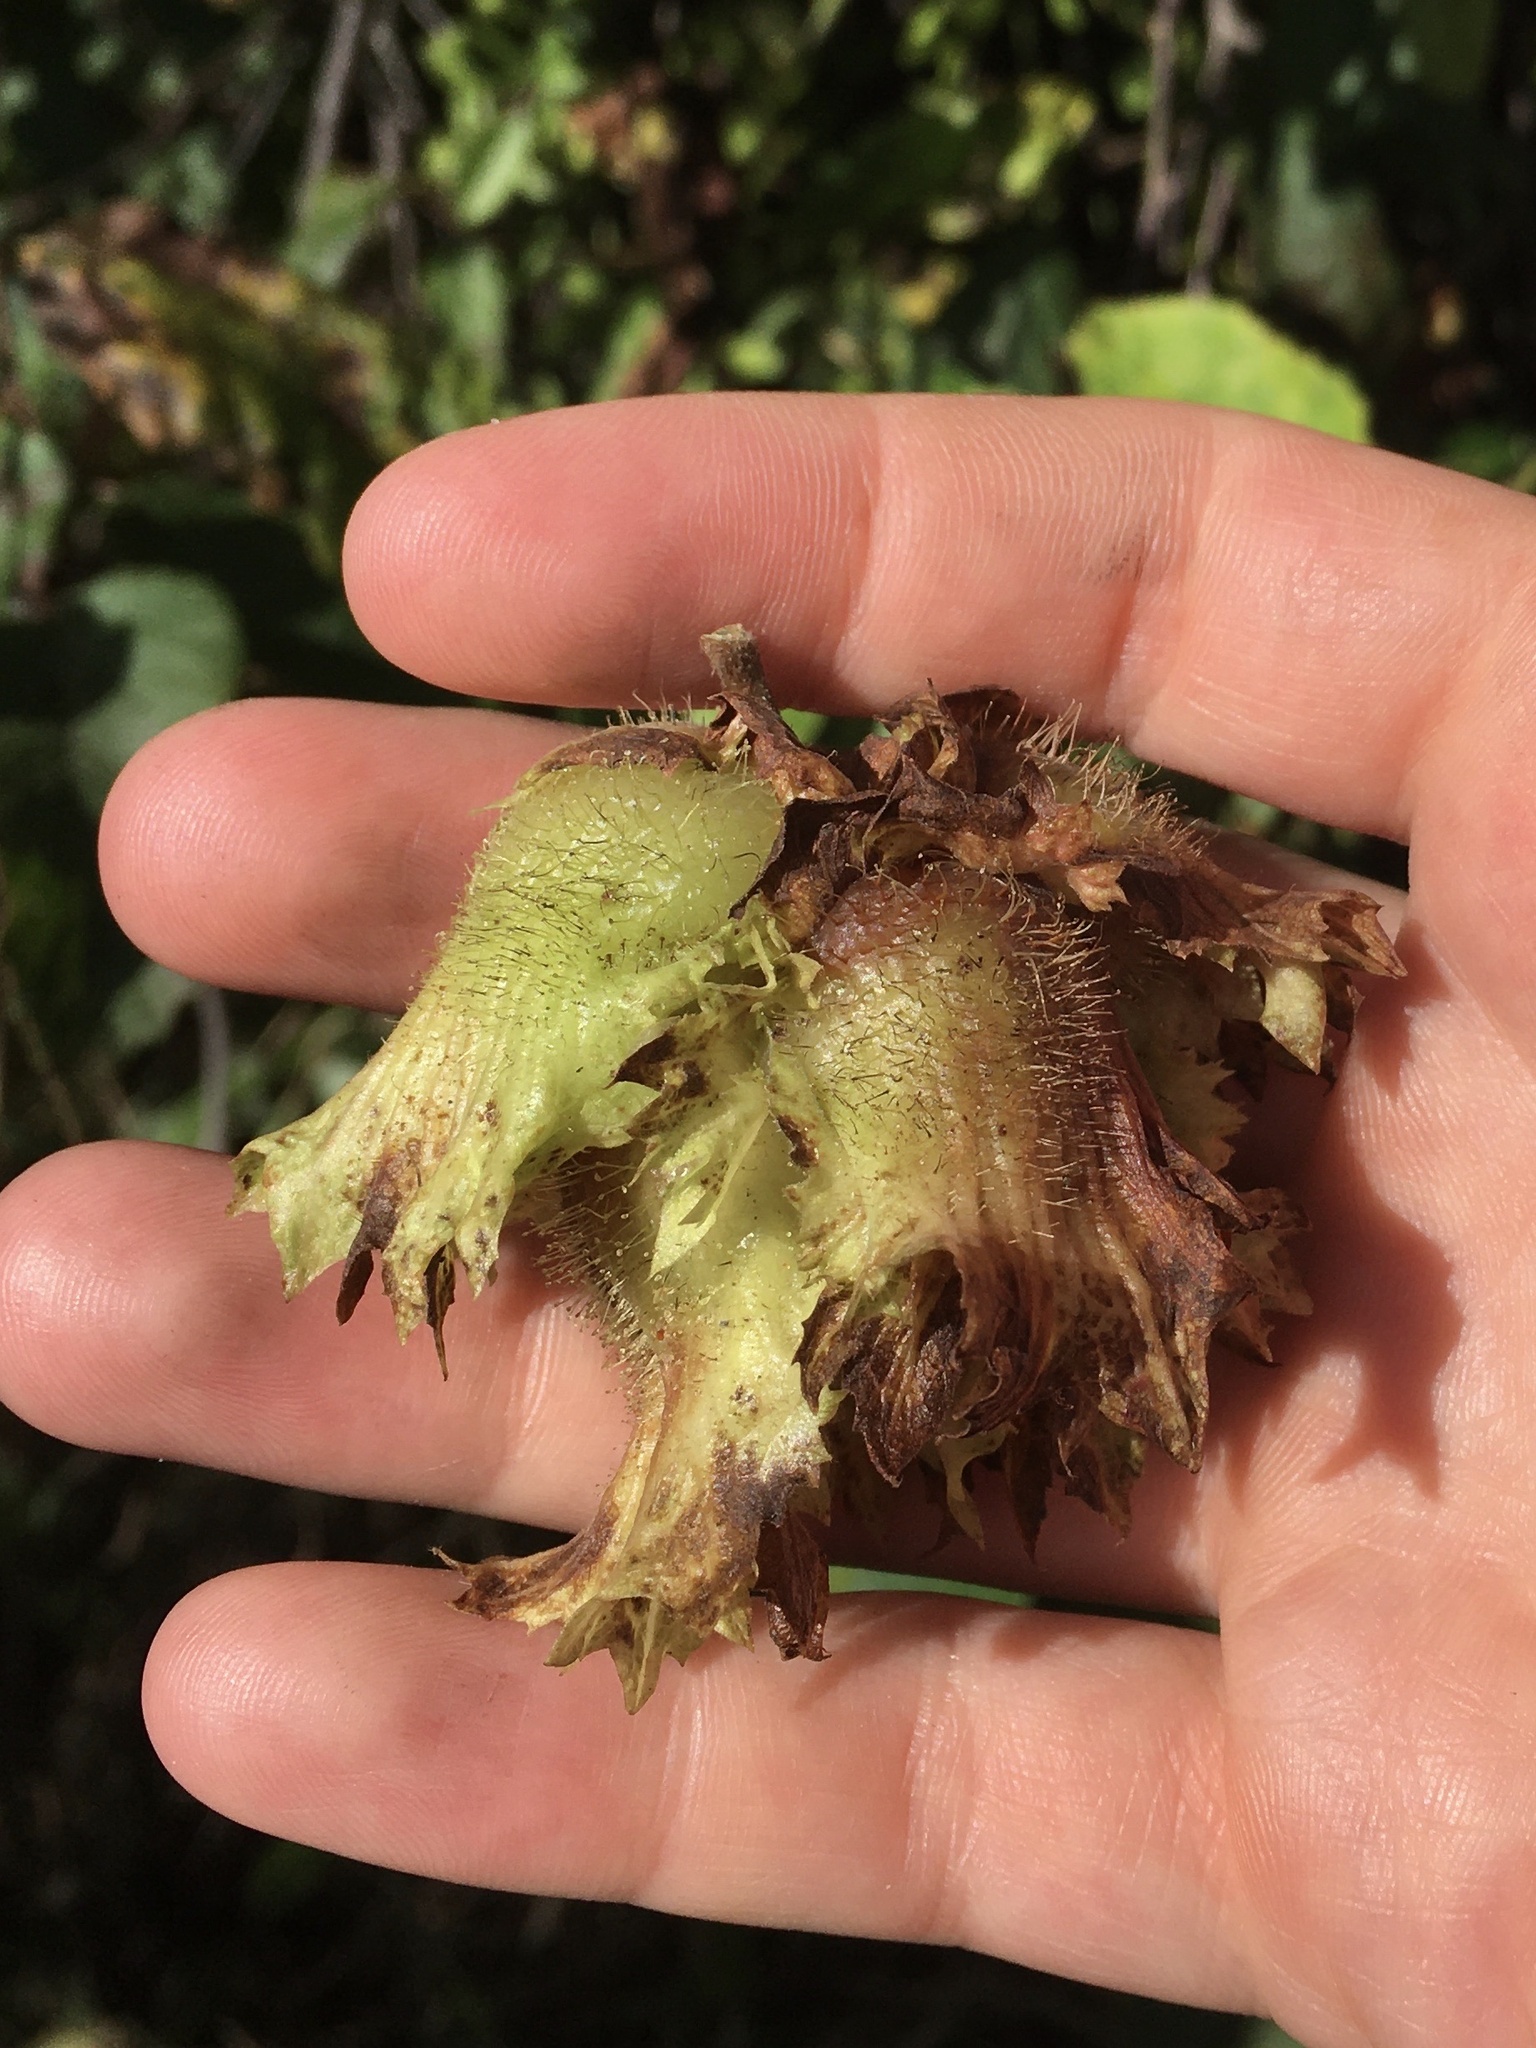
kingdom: Plantae
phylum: Tracheophyta
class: Magnoliopsida
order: Fagales
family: Betulaceae
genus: Corylus
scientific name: Corylus americana
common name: American hazel
